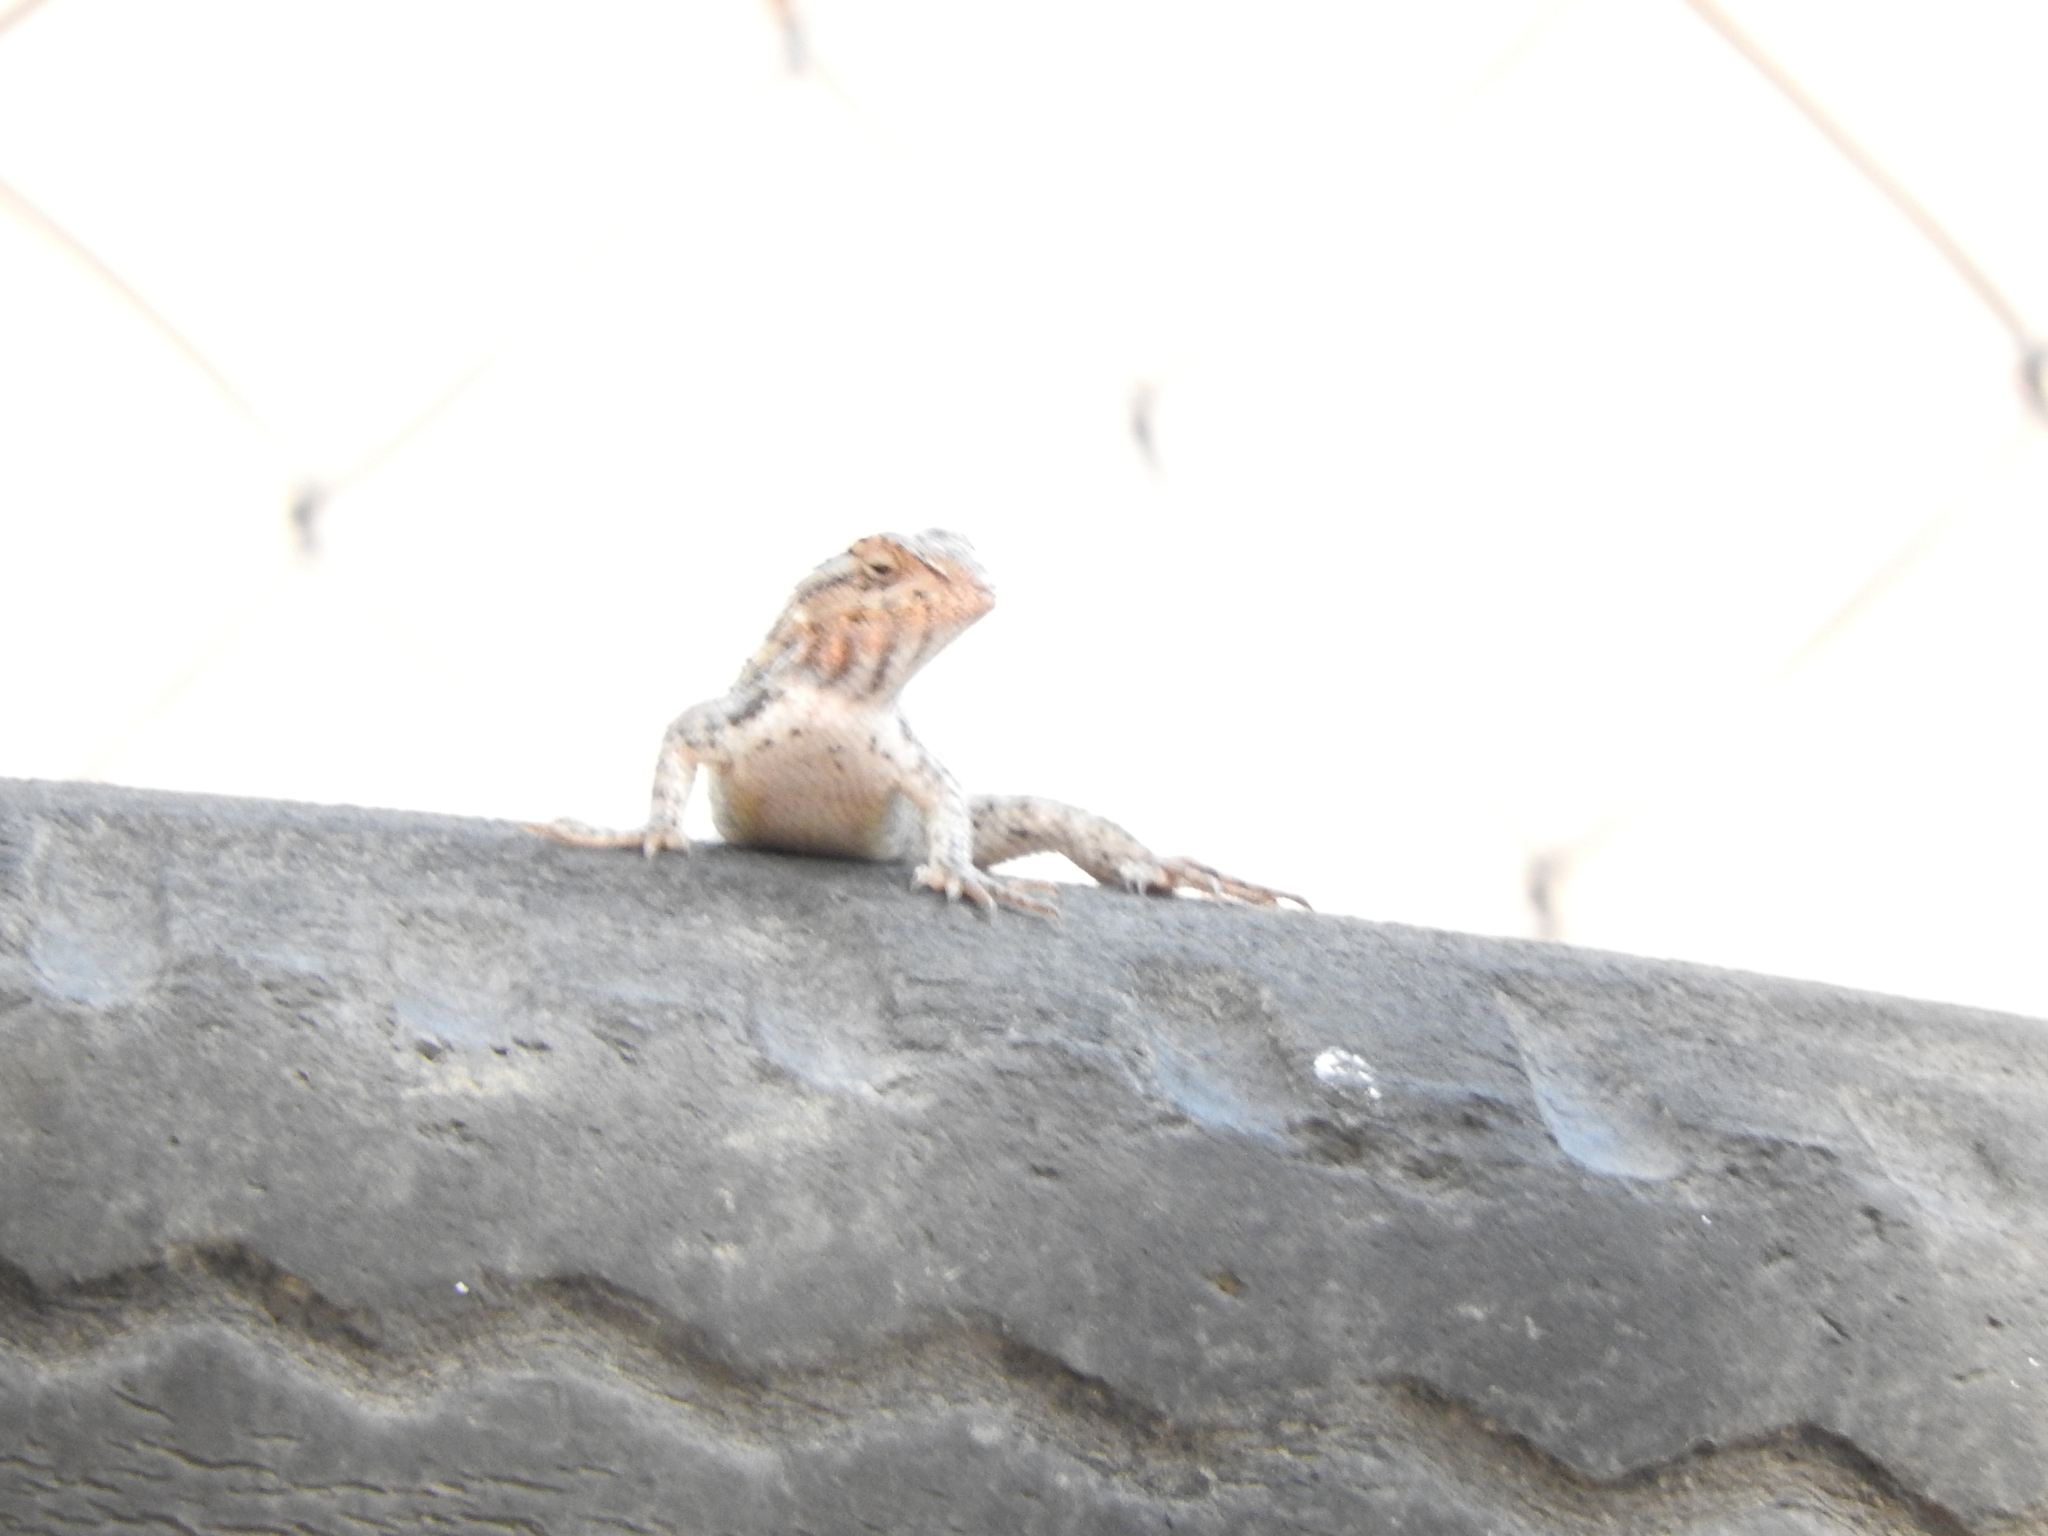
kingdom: Animalia
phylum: Chordata
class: Squamata
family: Phrynosomatidae
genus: Sceloporus
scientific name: Sceloporus spinosus
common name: Blue-spotted spiny lizard [caeruleopunctatus]
